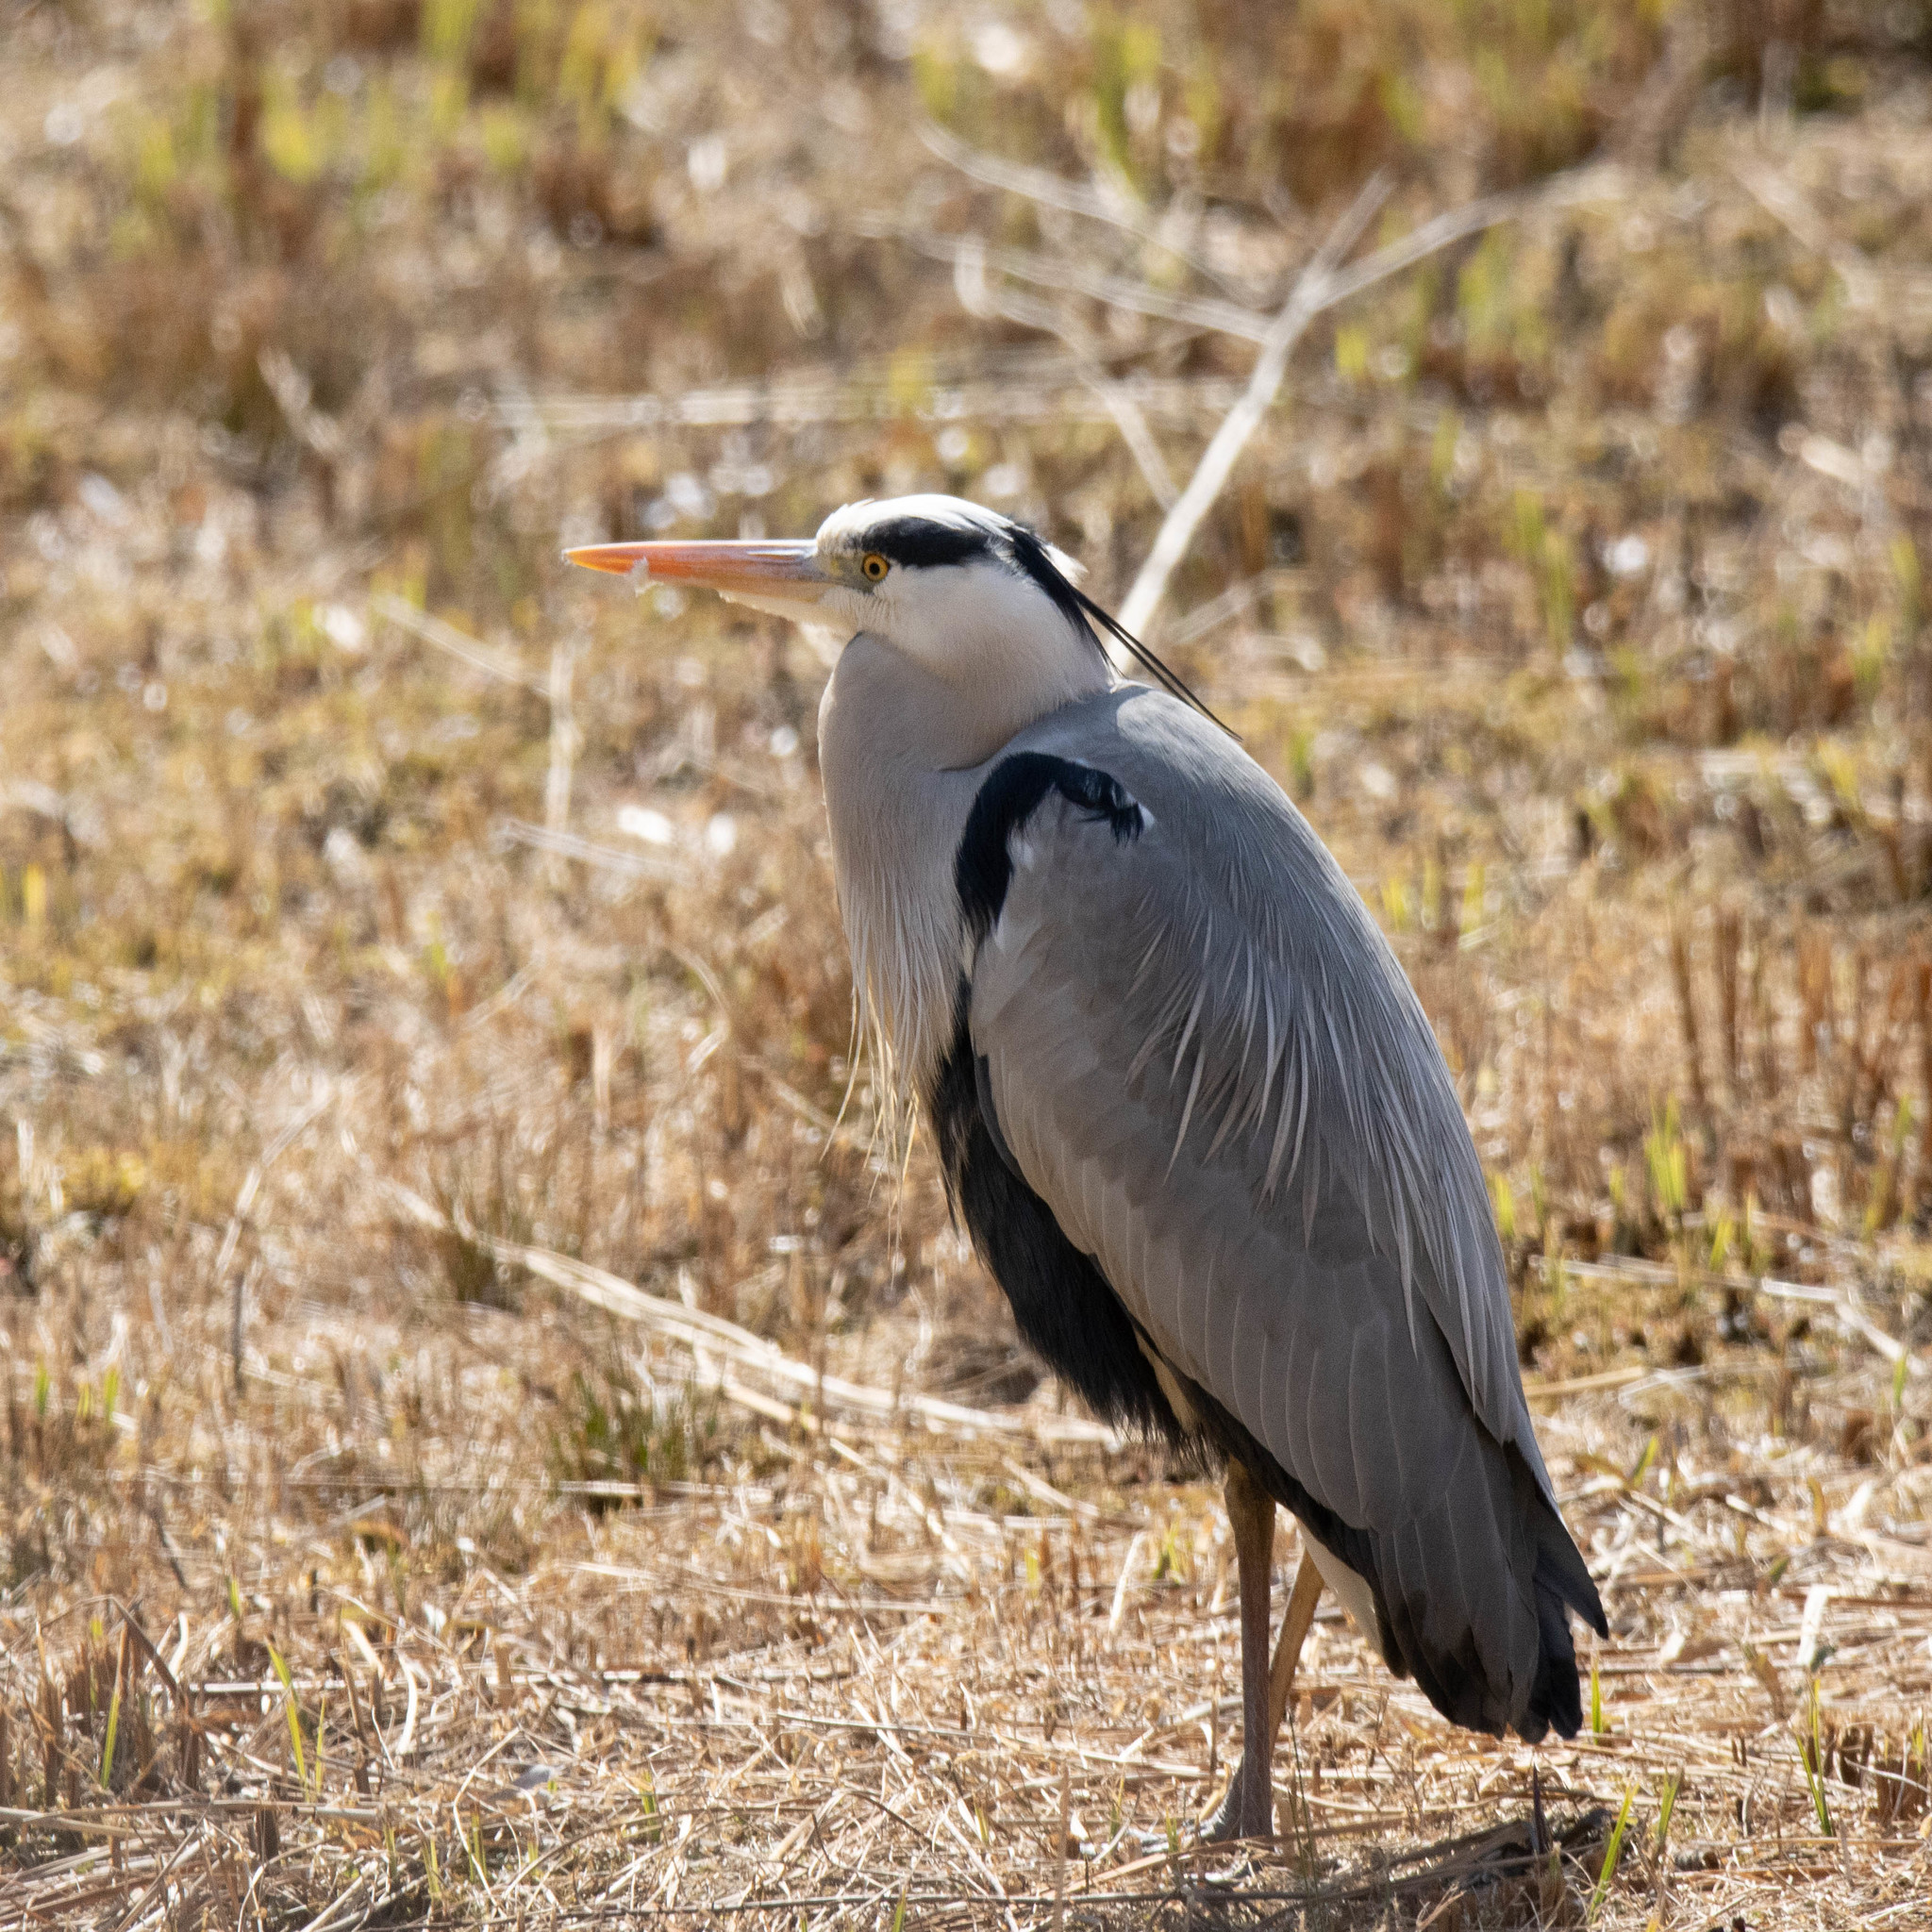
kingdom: Animalia
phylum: Chordata
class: Aves
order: Pelecaniformes
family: Ardeidae
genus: Ardea
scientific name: Ardea cinerea
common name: Grey heron
